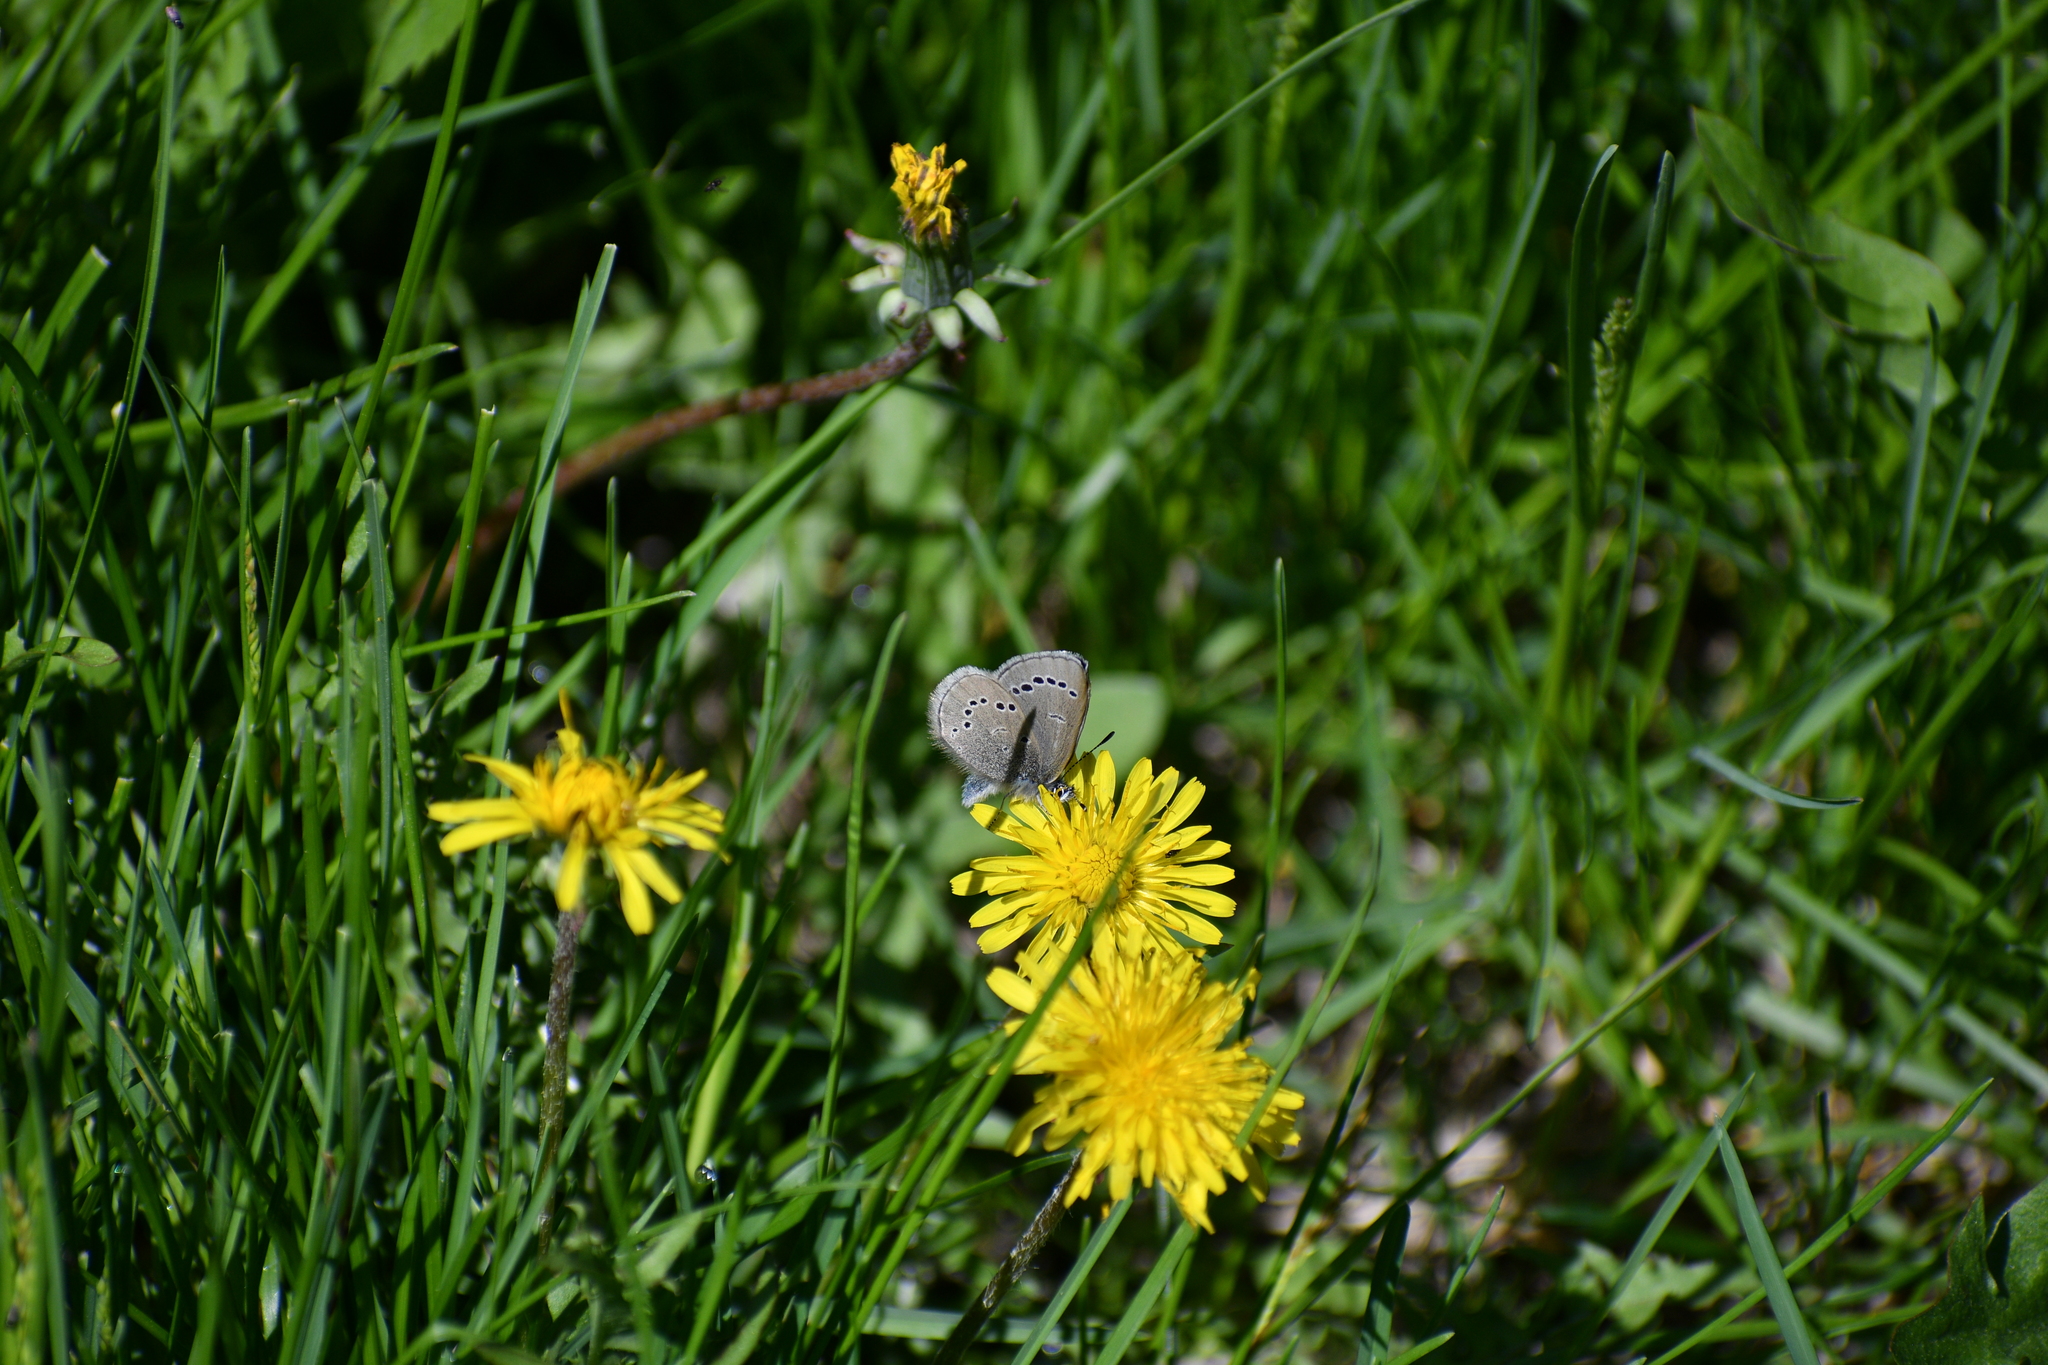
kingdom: Animalia
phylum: Arthropoda
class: Insecta
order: Lepidoptera
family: Lycaenidae
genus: Glaucopsyche
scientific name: Glaucopsyche lygdamus
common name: Silvery blue
